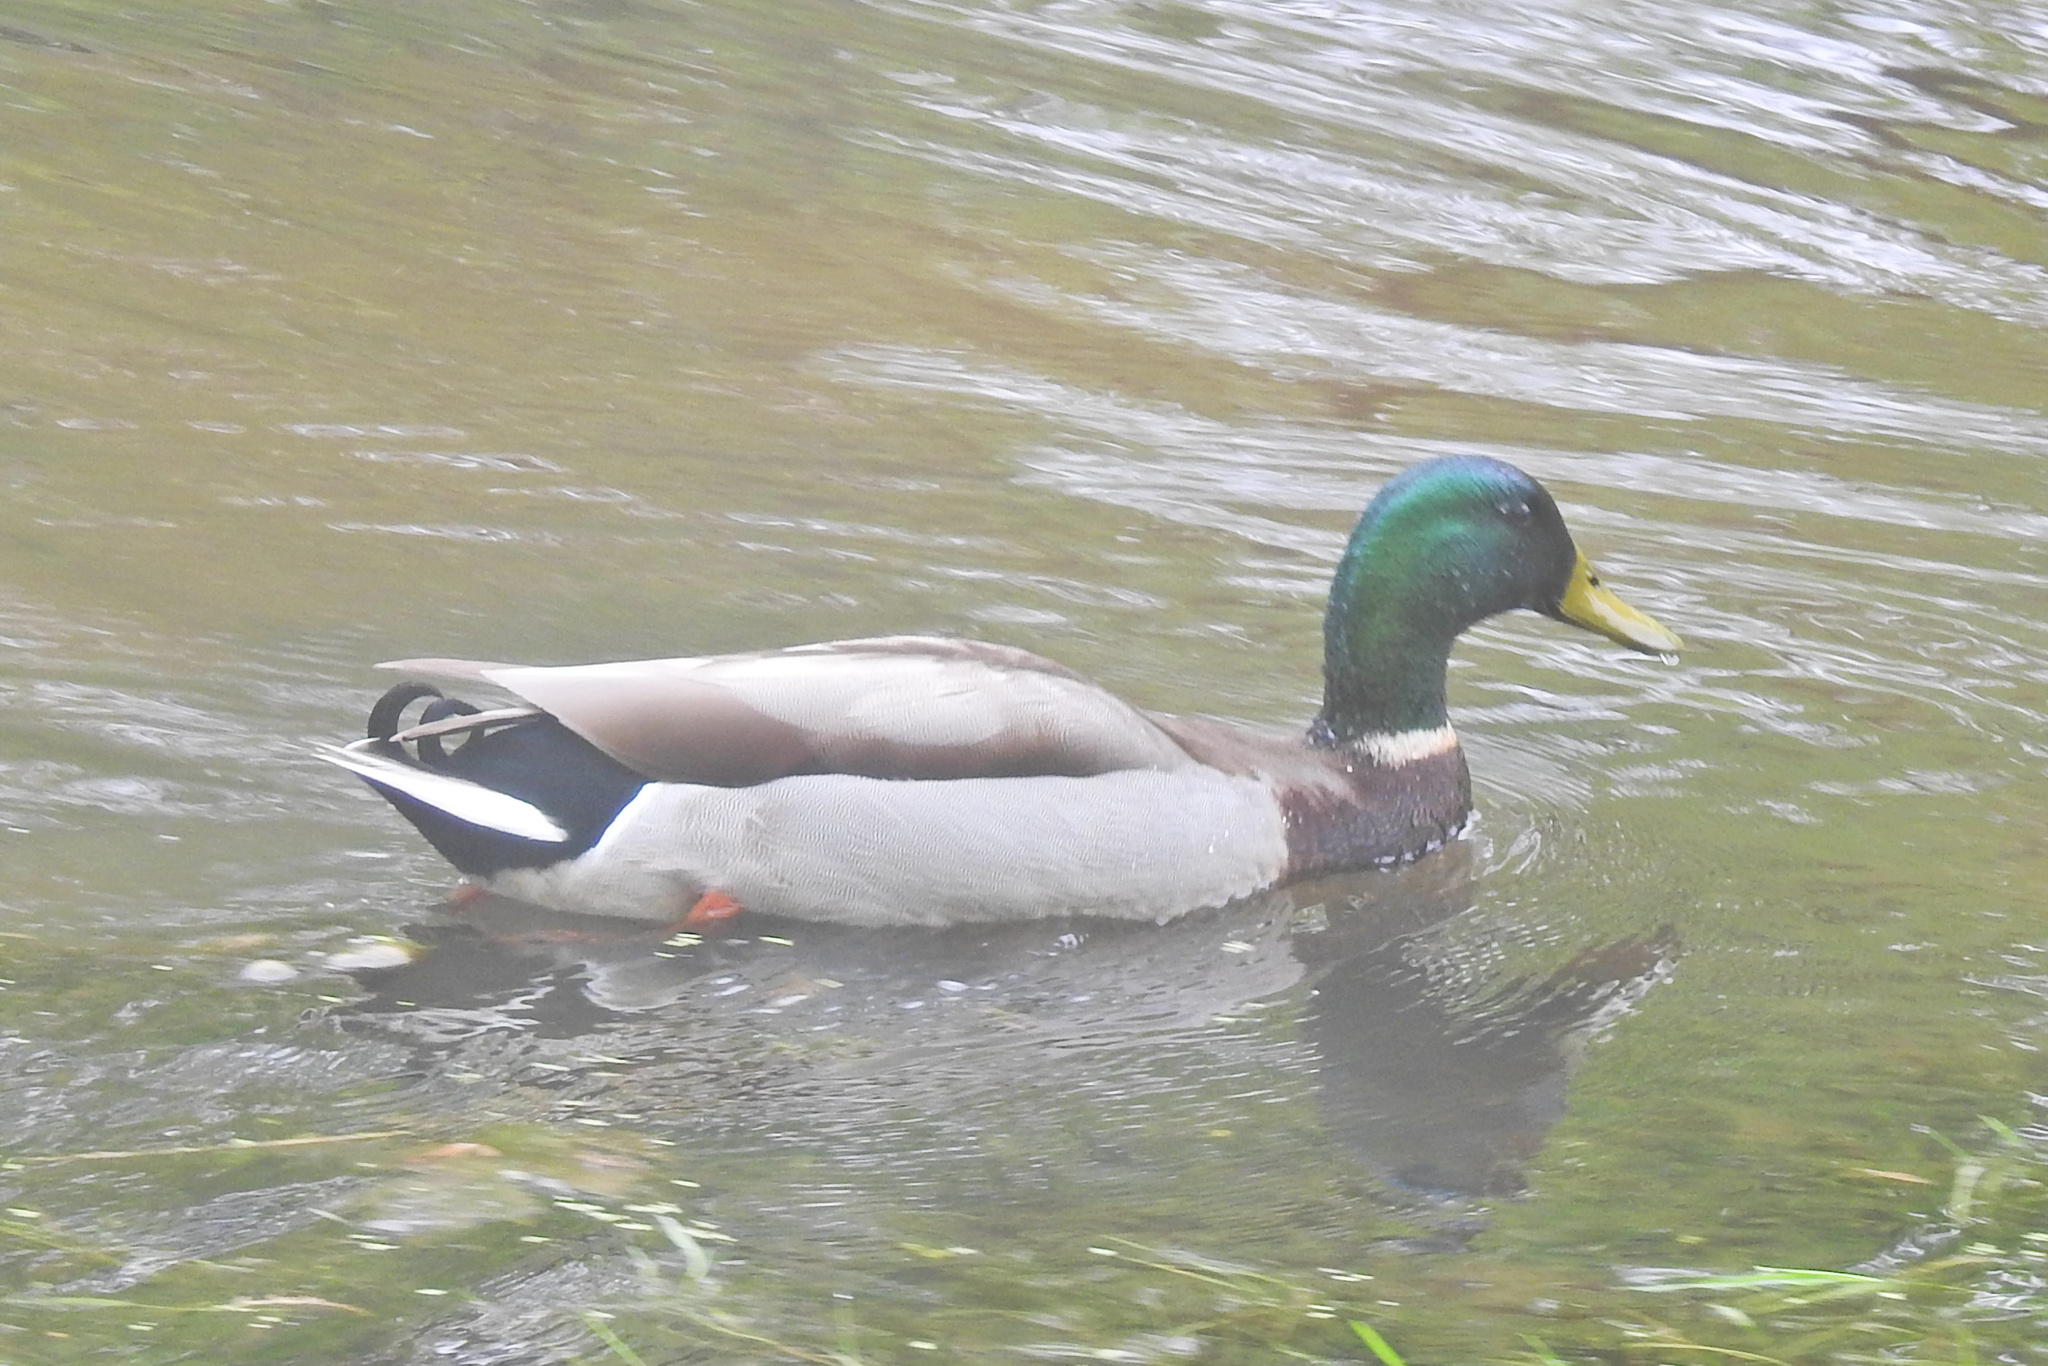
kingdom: Animalia
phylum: Chordata
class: Aves
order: Anseriformes
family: Anatidae
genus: Anas
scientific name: Anas platyrhynchos
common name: Mallard
